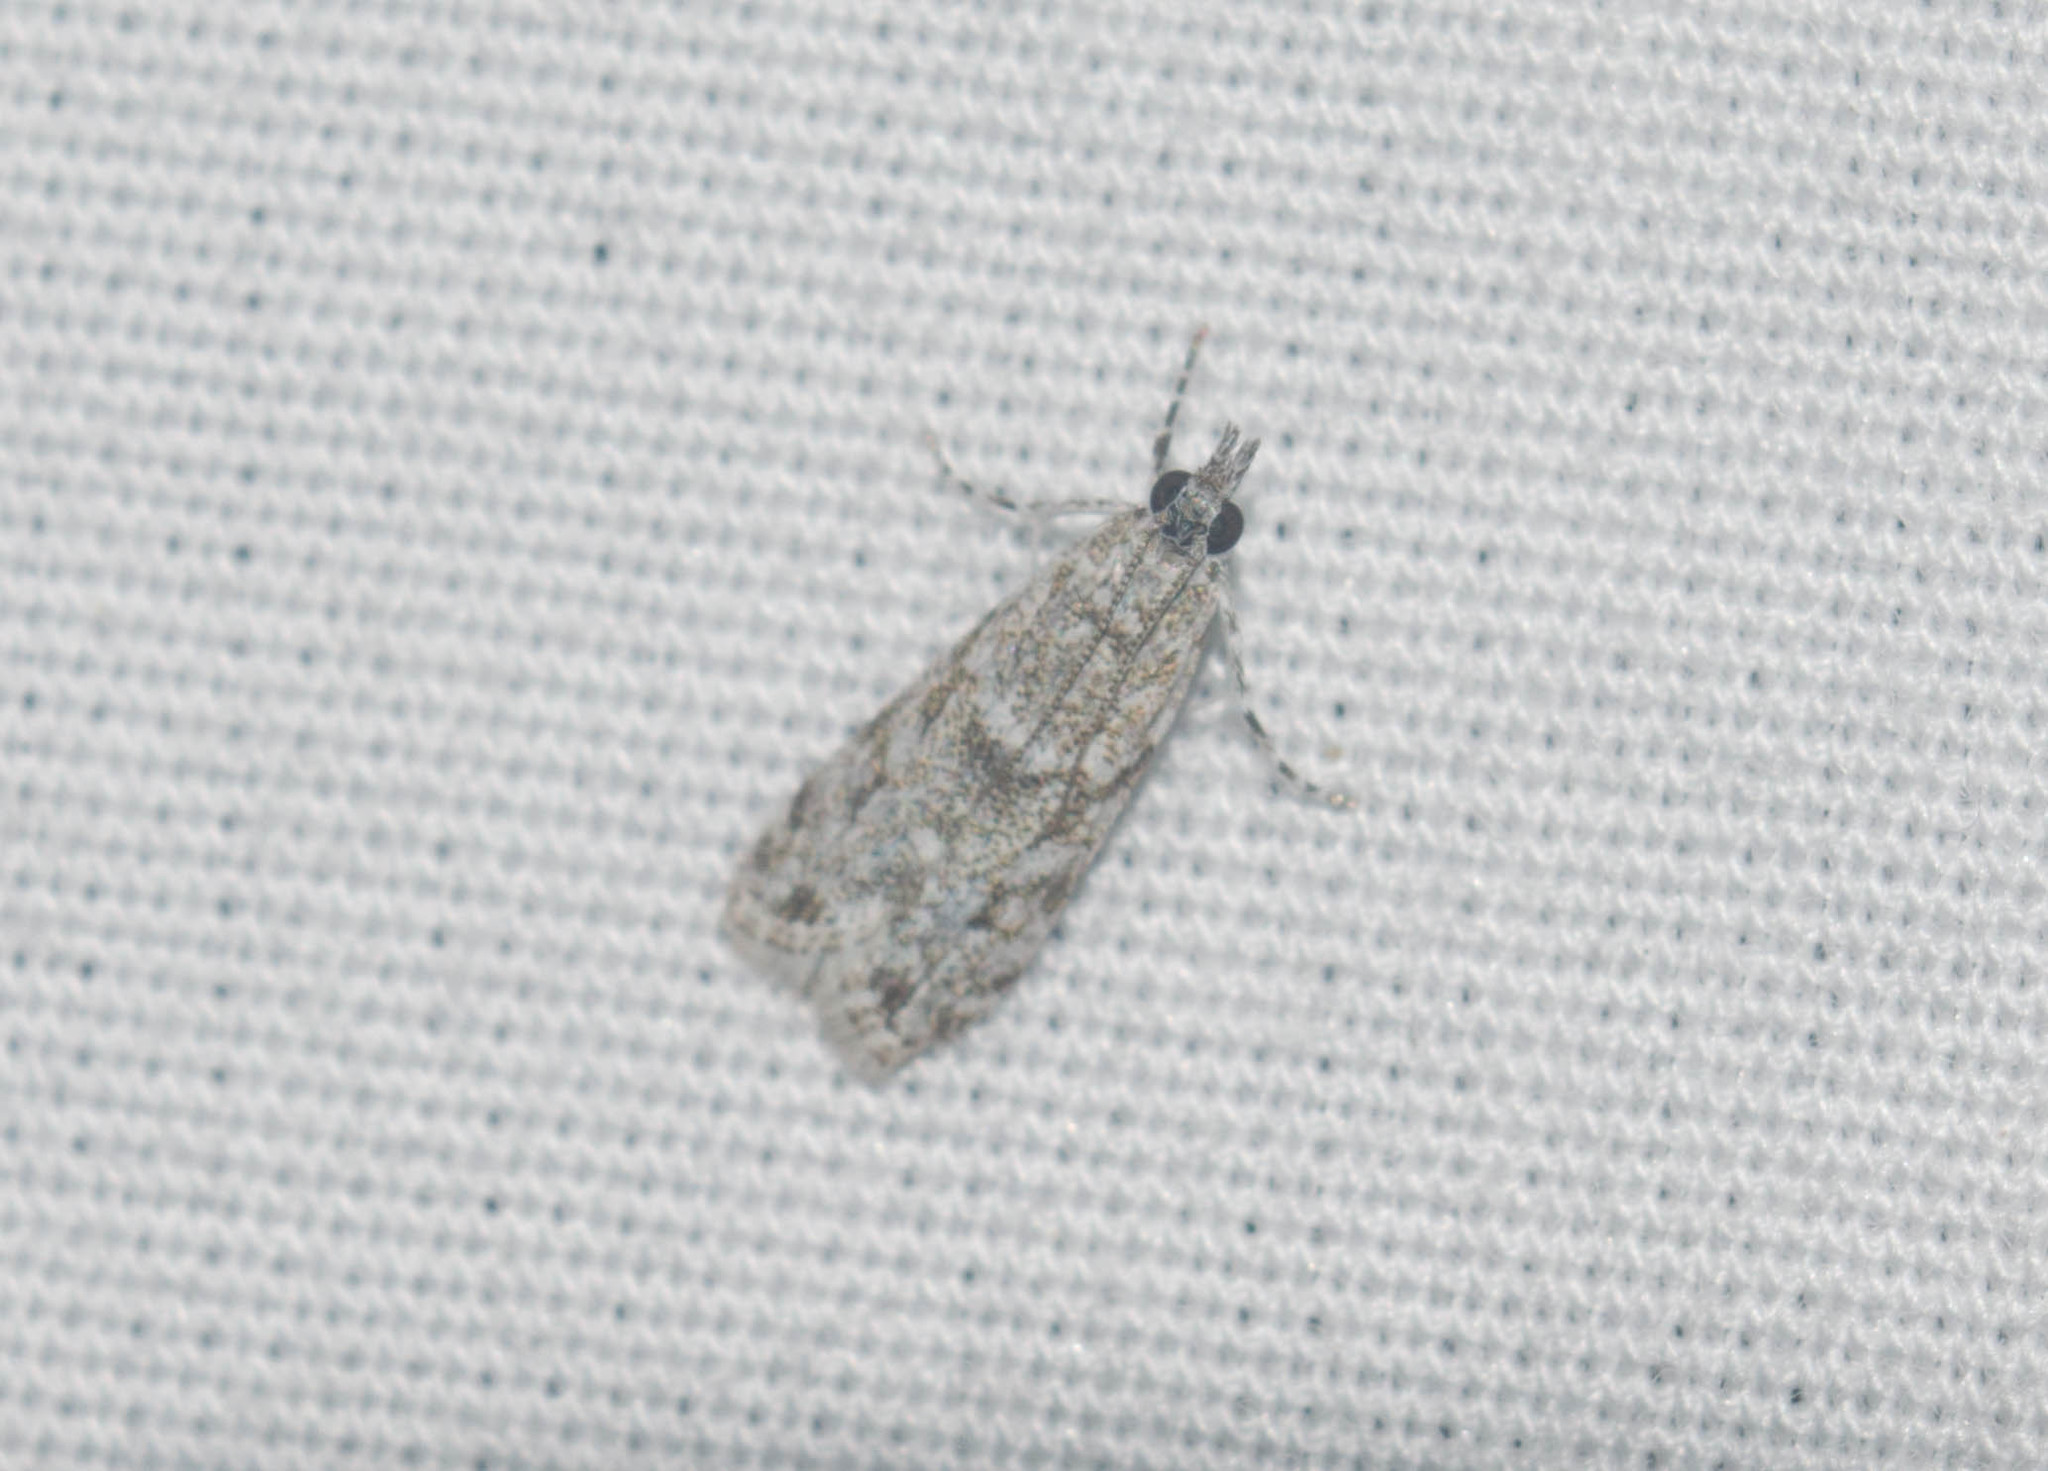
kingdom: Animalia
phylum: Arthropoda
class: Insecta
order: Lepidoptera
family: Crambidae
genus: Eudonia
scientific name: Eudonia geraea
